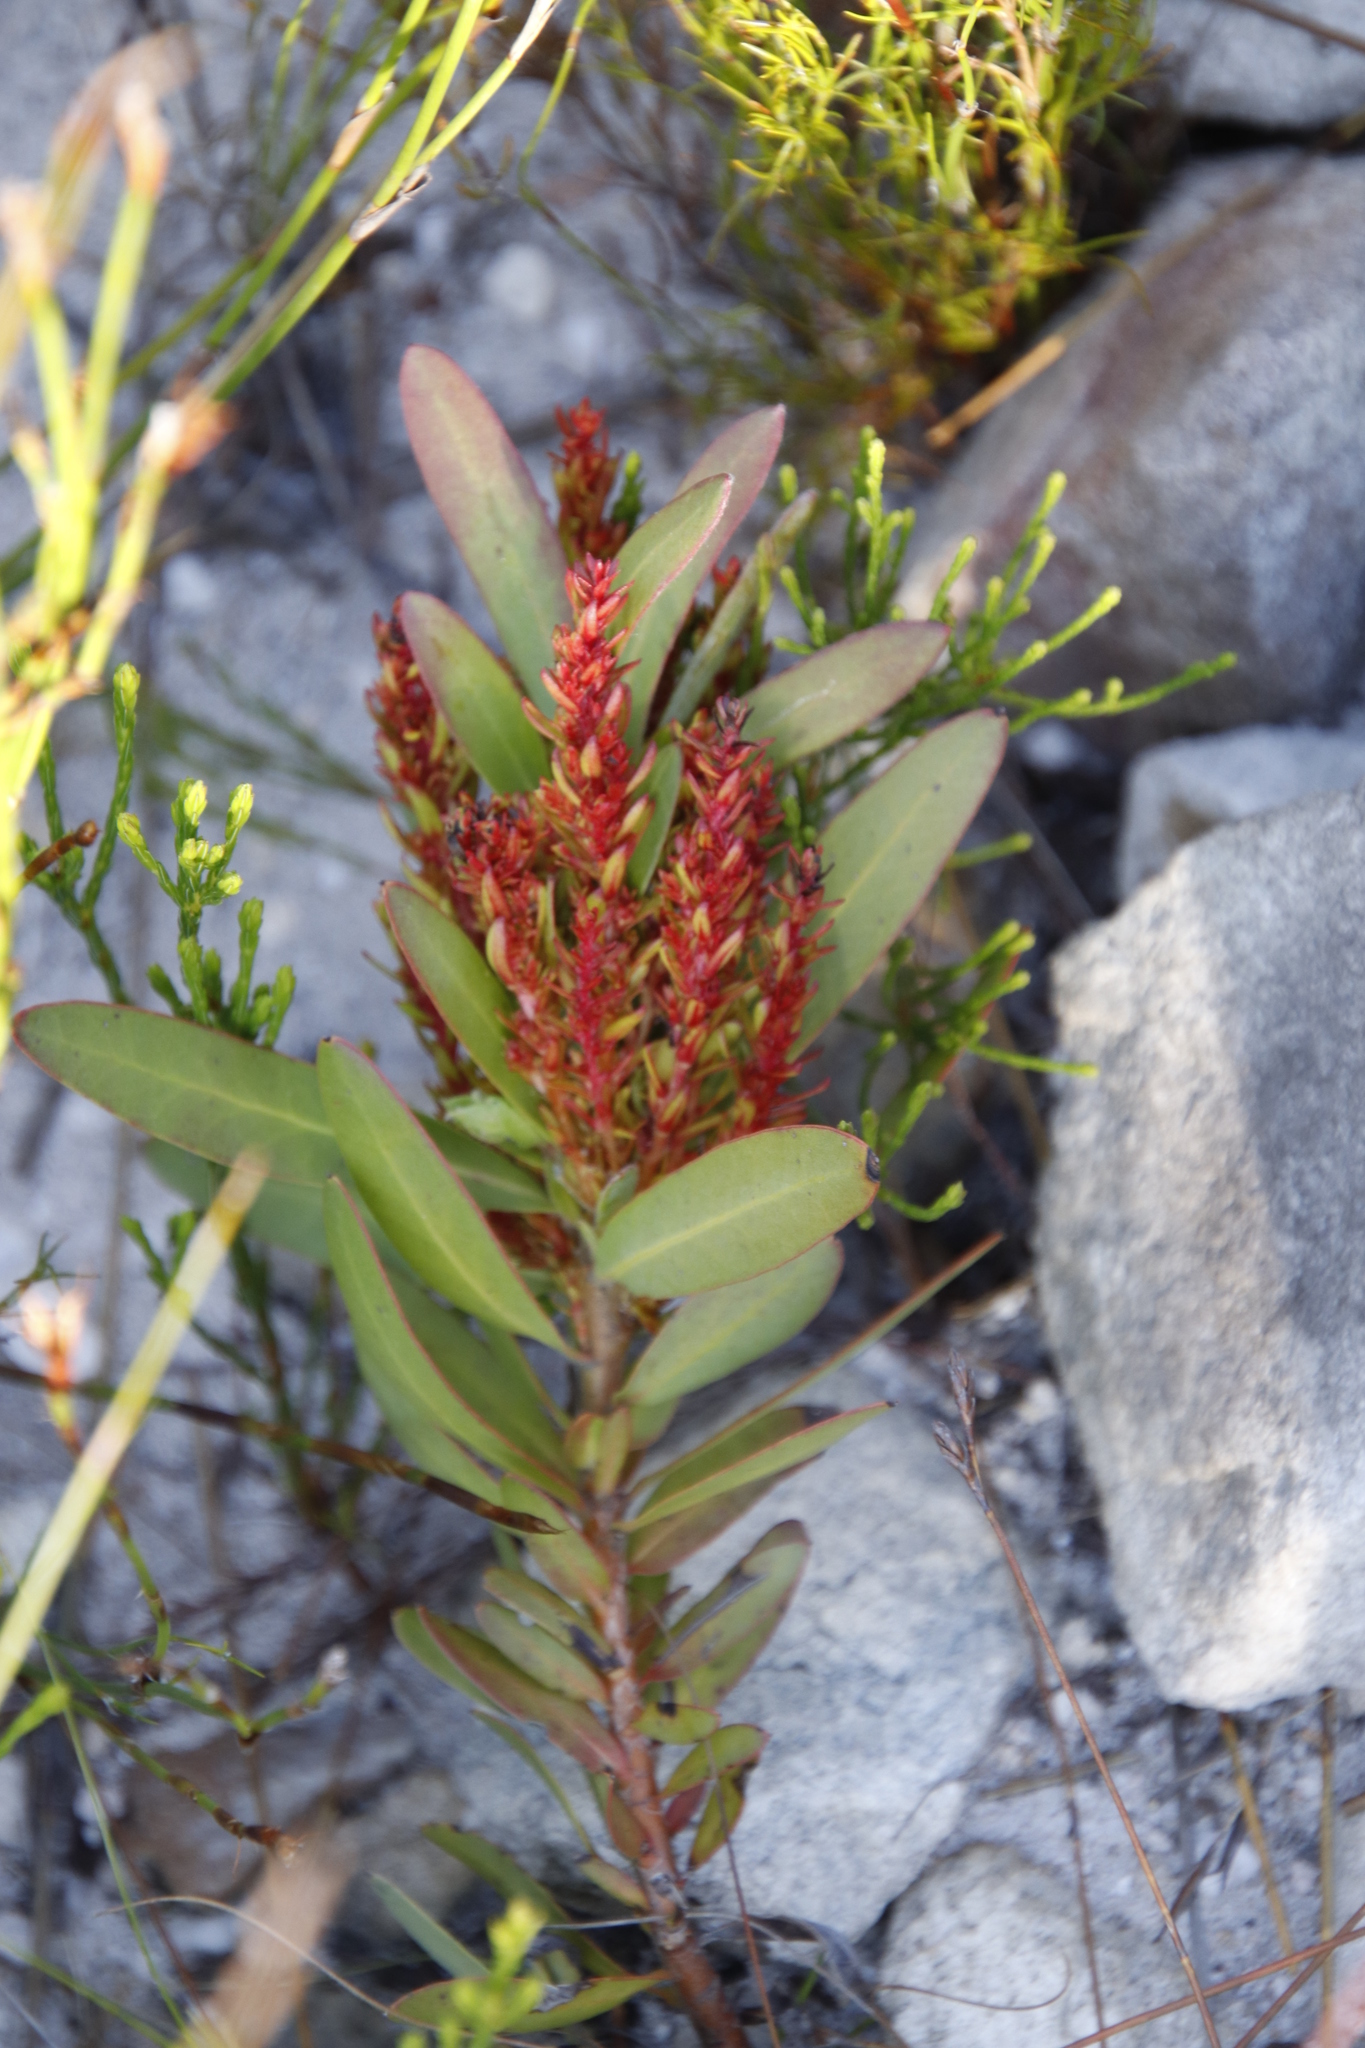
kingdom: Bacteria
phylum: Firmicutes
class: Bacilli
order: Acholeplasmatales
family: Acholeplasmataceae
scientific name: Acholeplasmataceae
